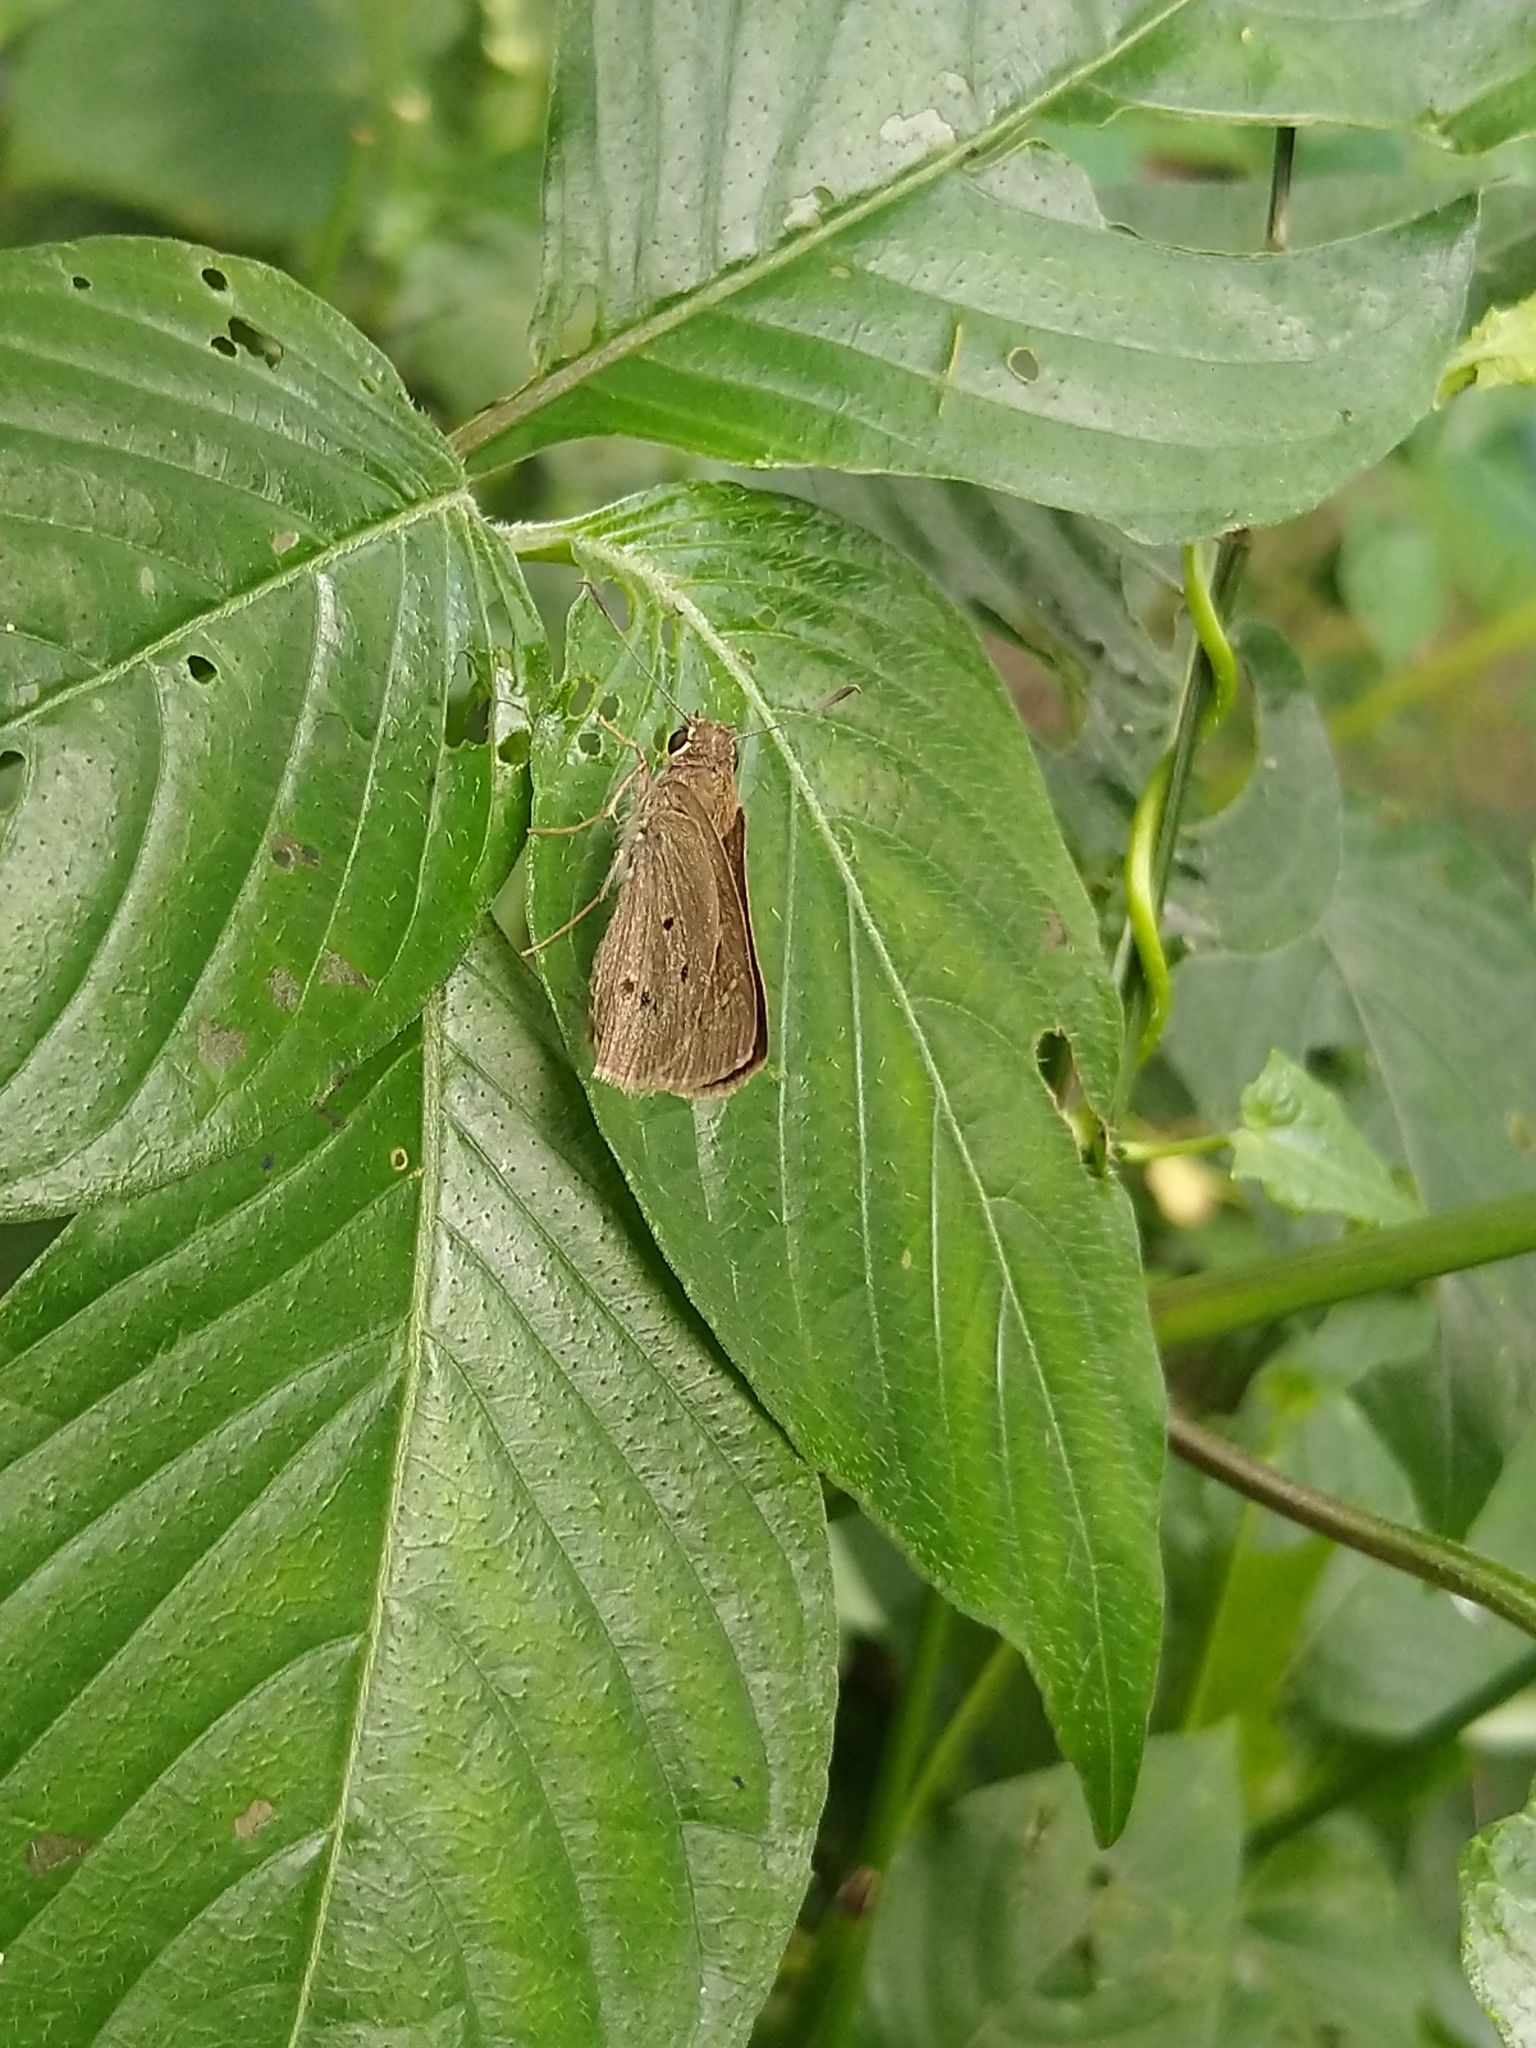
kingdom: Animalia
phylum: Arthropoda
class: Insecta
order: Lepidoptera
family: Hesperiidae
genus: Suastus
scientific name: Suastus gremius
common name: Indian palm bob
